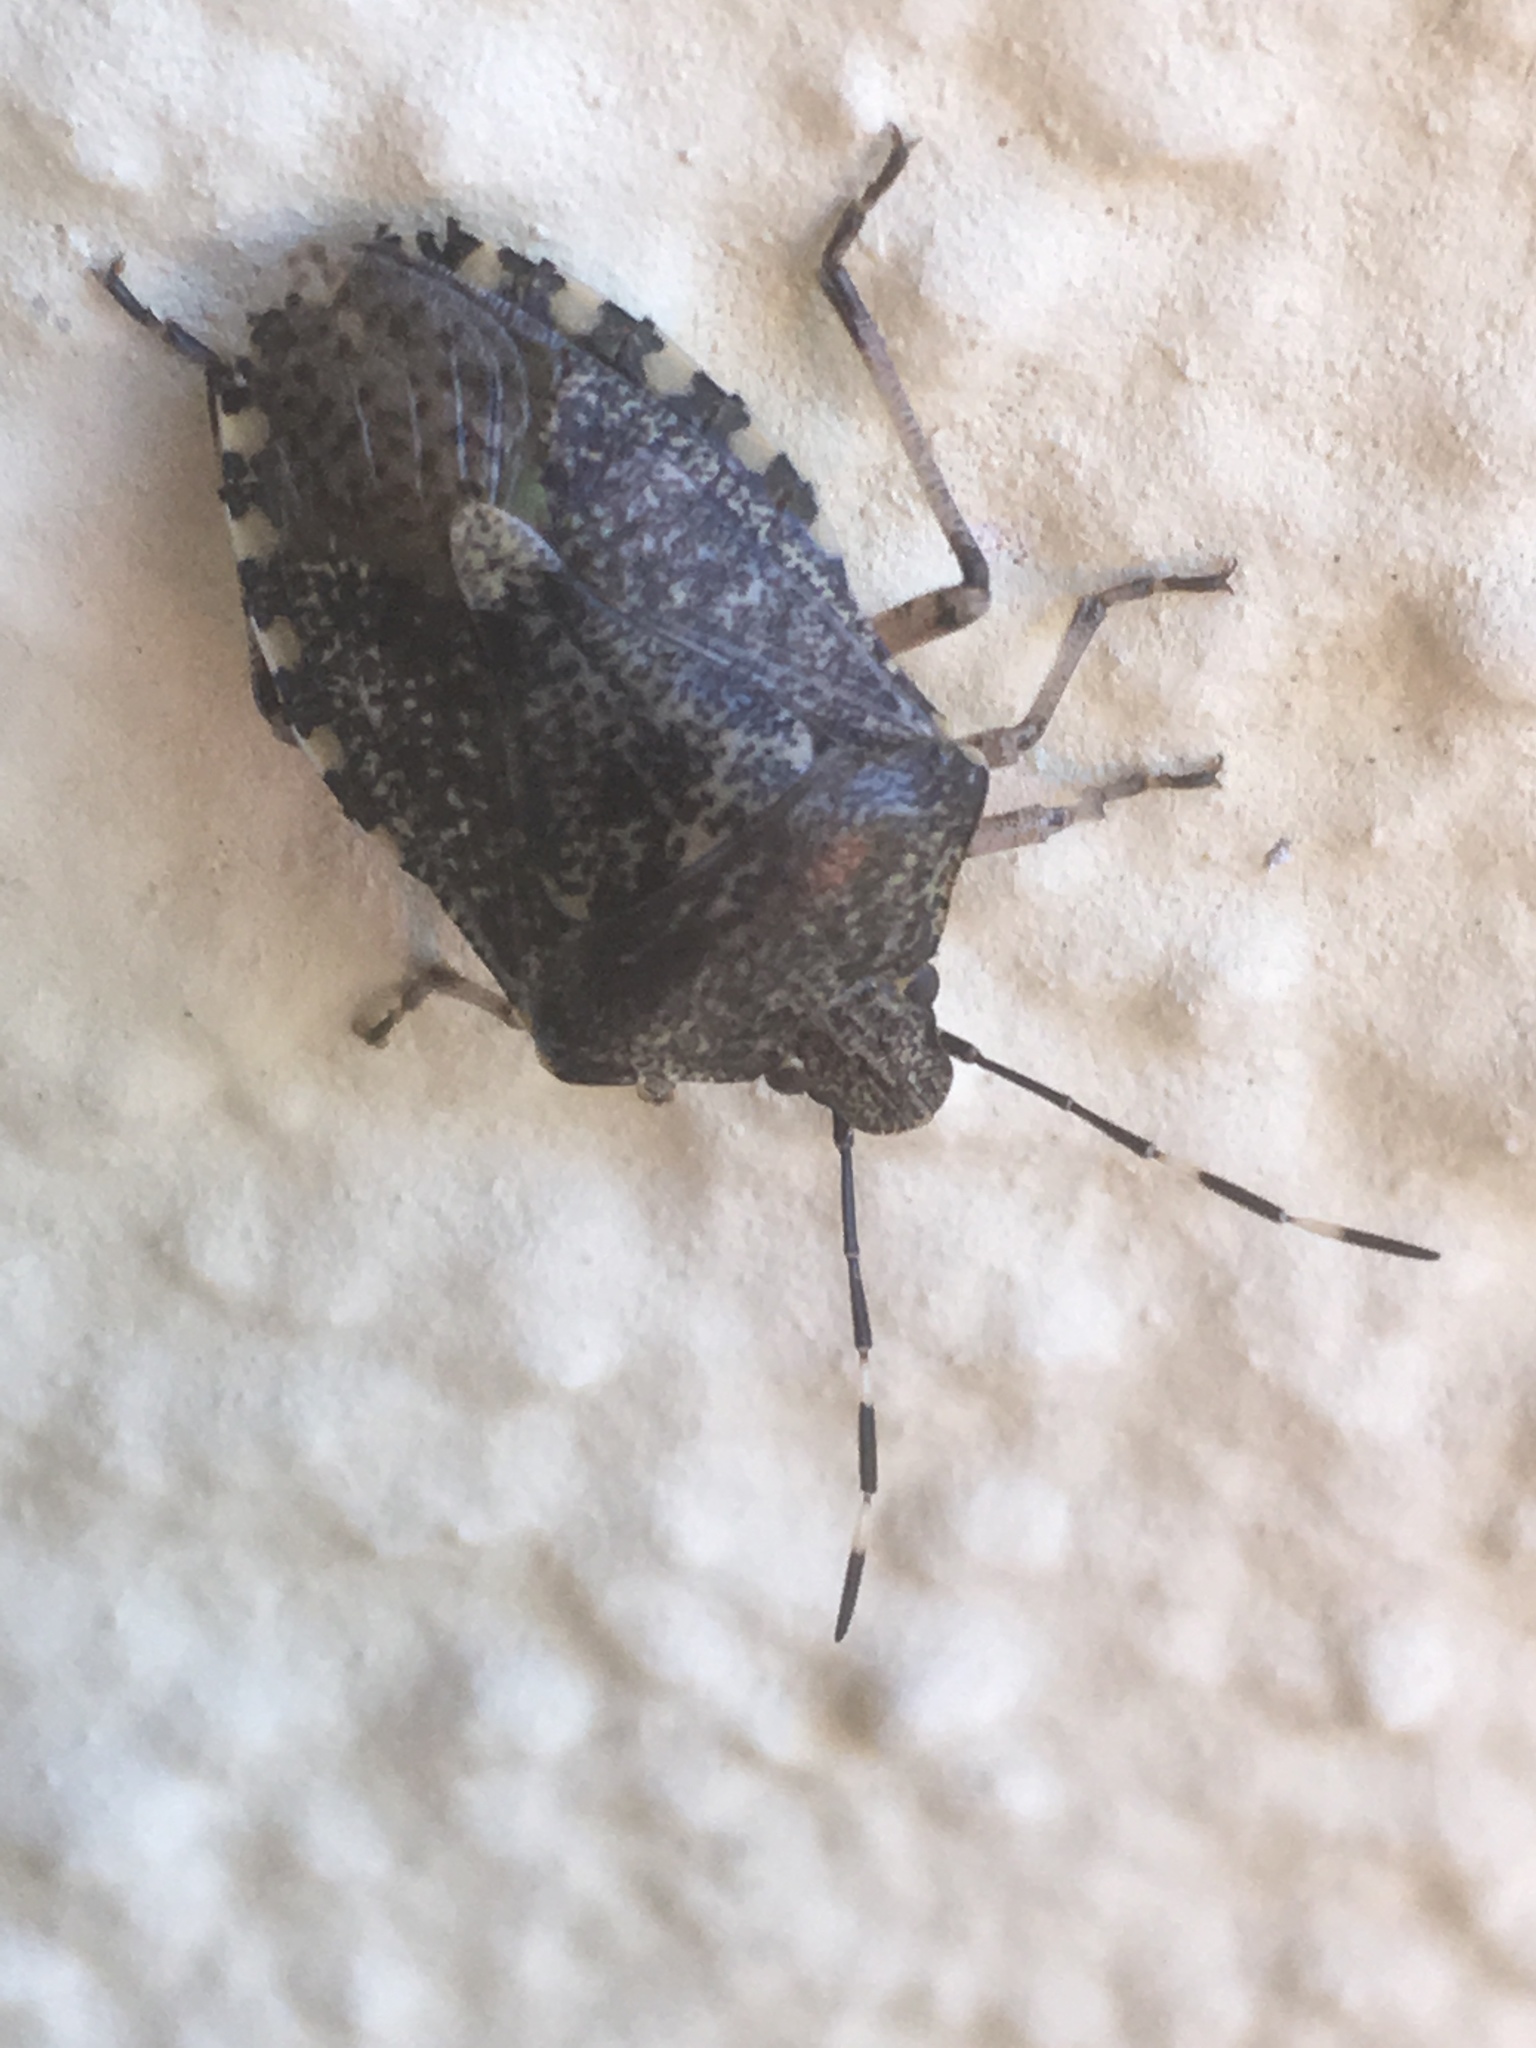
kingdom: Animalia
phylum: Arthropoda
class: Insecta
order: Hemiptera
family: Pentatomidae
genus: Rhaphigaster
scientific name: Rhaphigaster nebulosa
